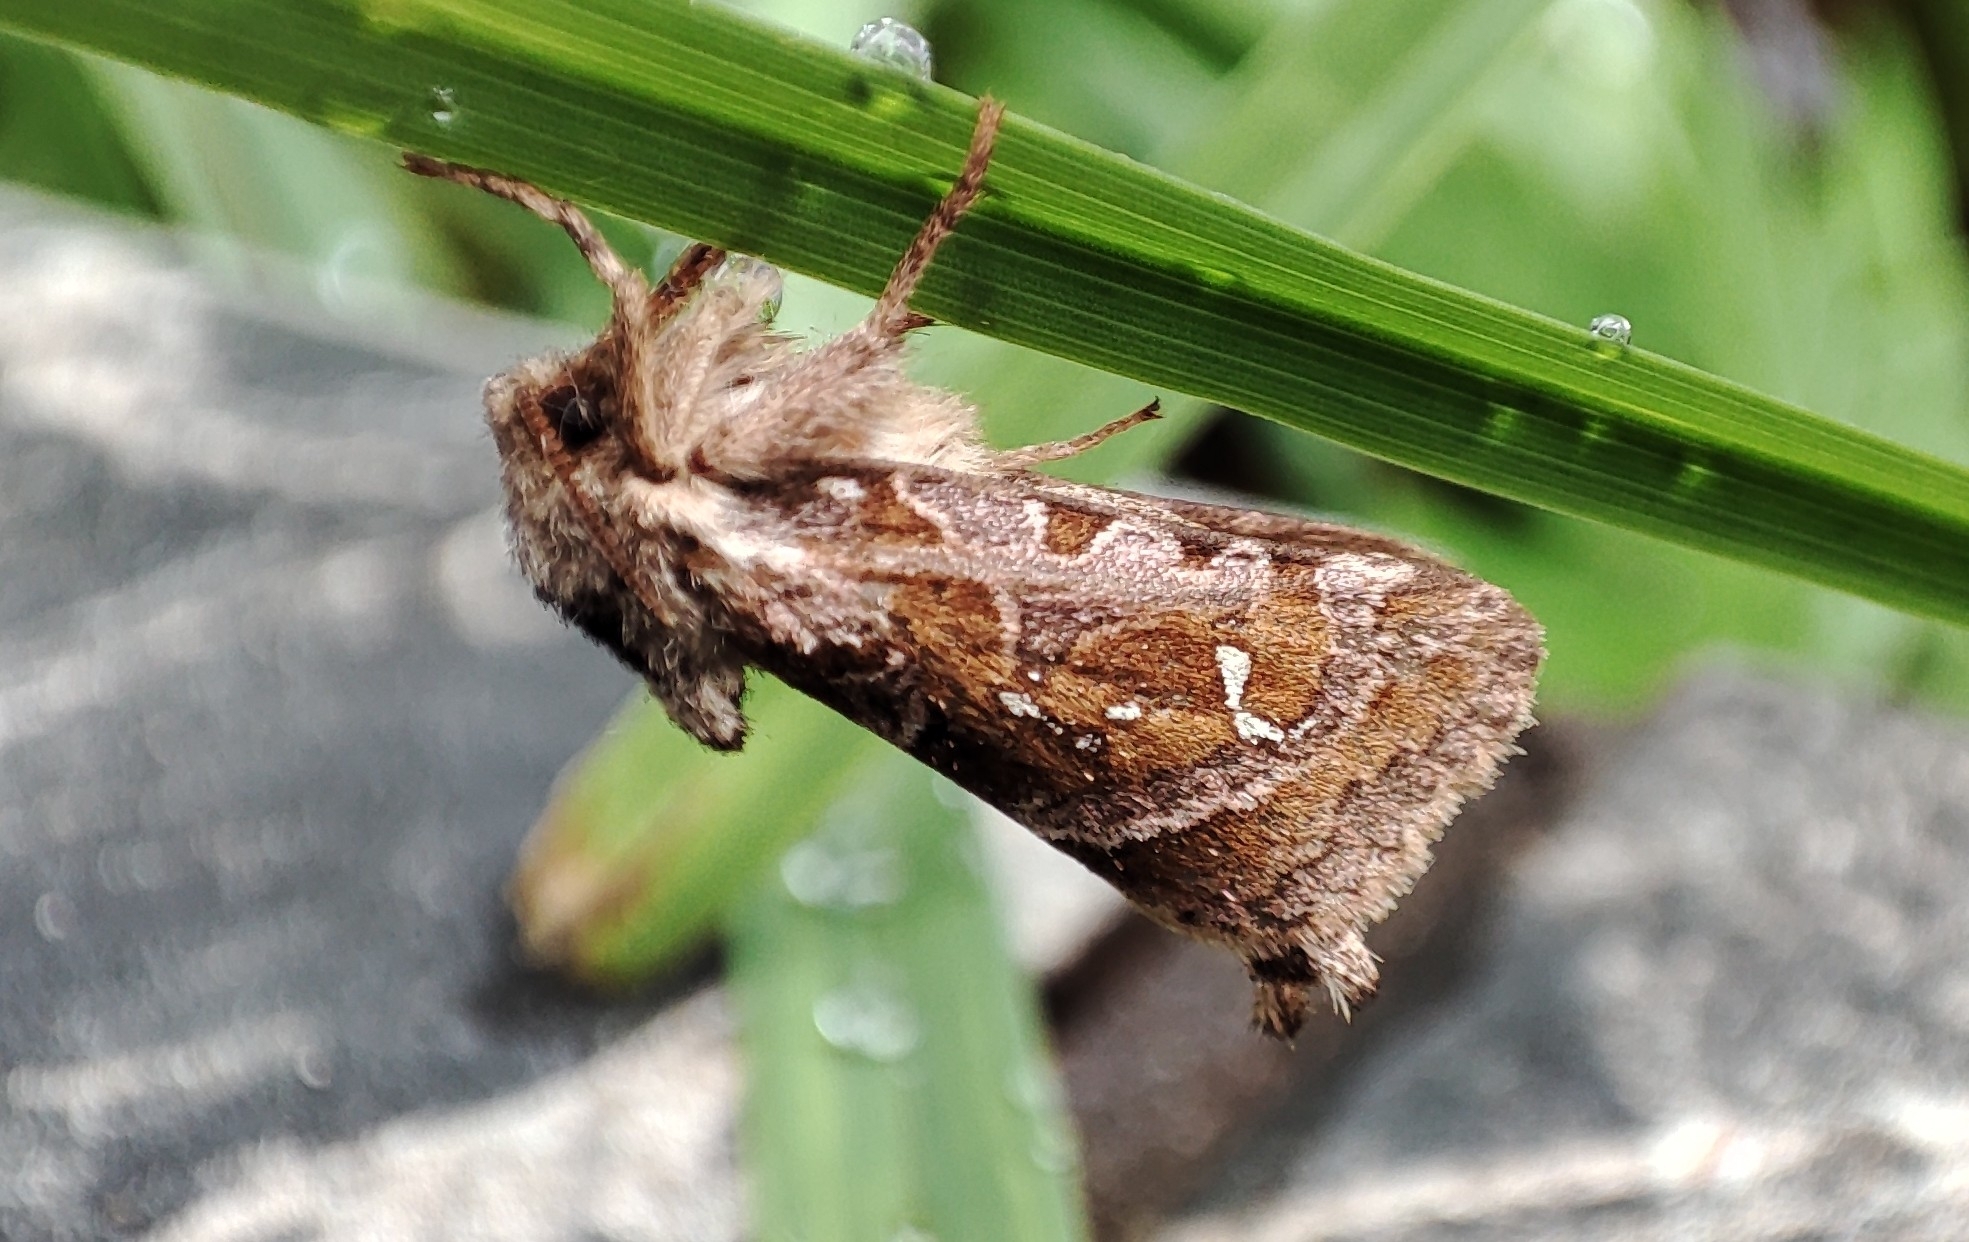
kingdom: Animalia
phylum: Arthropoda
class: Insecta
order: Lepidoptera
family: Hepialidae
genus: Triodia
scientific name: Triodia nubifer
